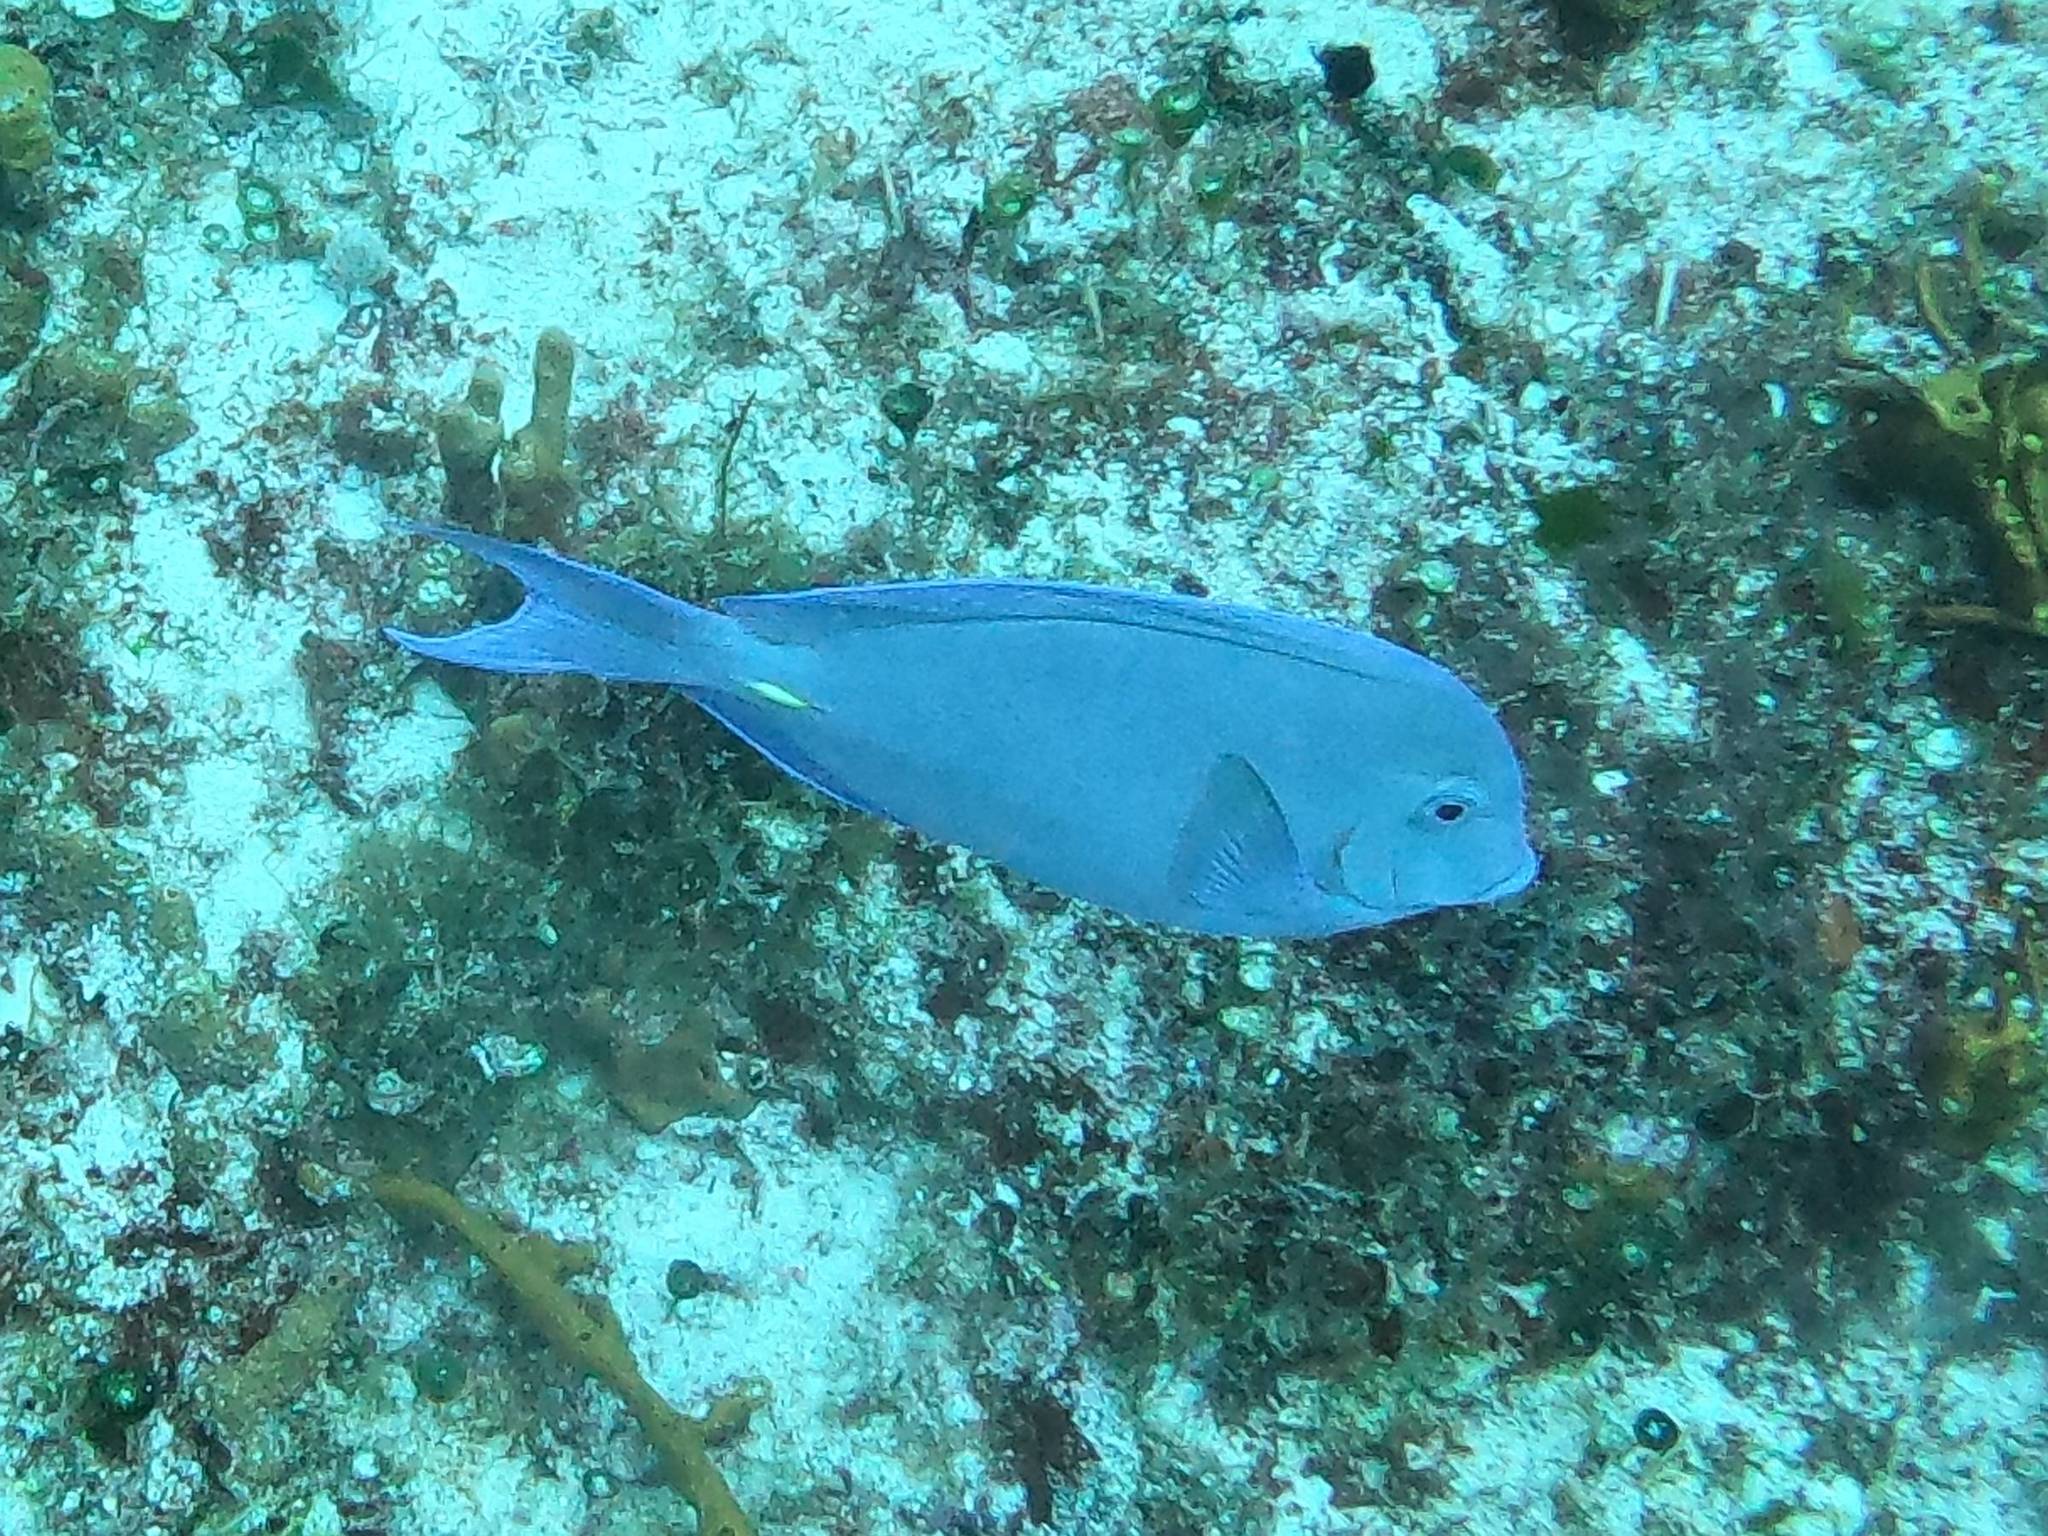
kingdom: Animalia
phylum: Chordata
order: Perciformes
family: Acanthuridae
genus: Acanthurus
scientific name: Acanthurus coeruleus
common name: Blue tang
